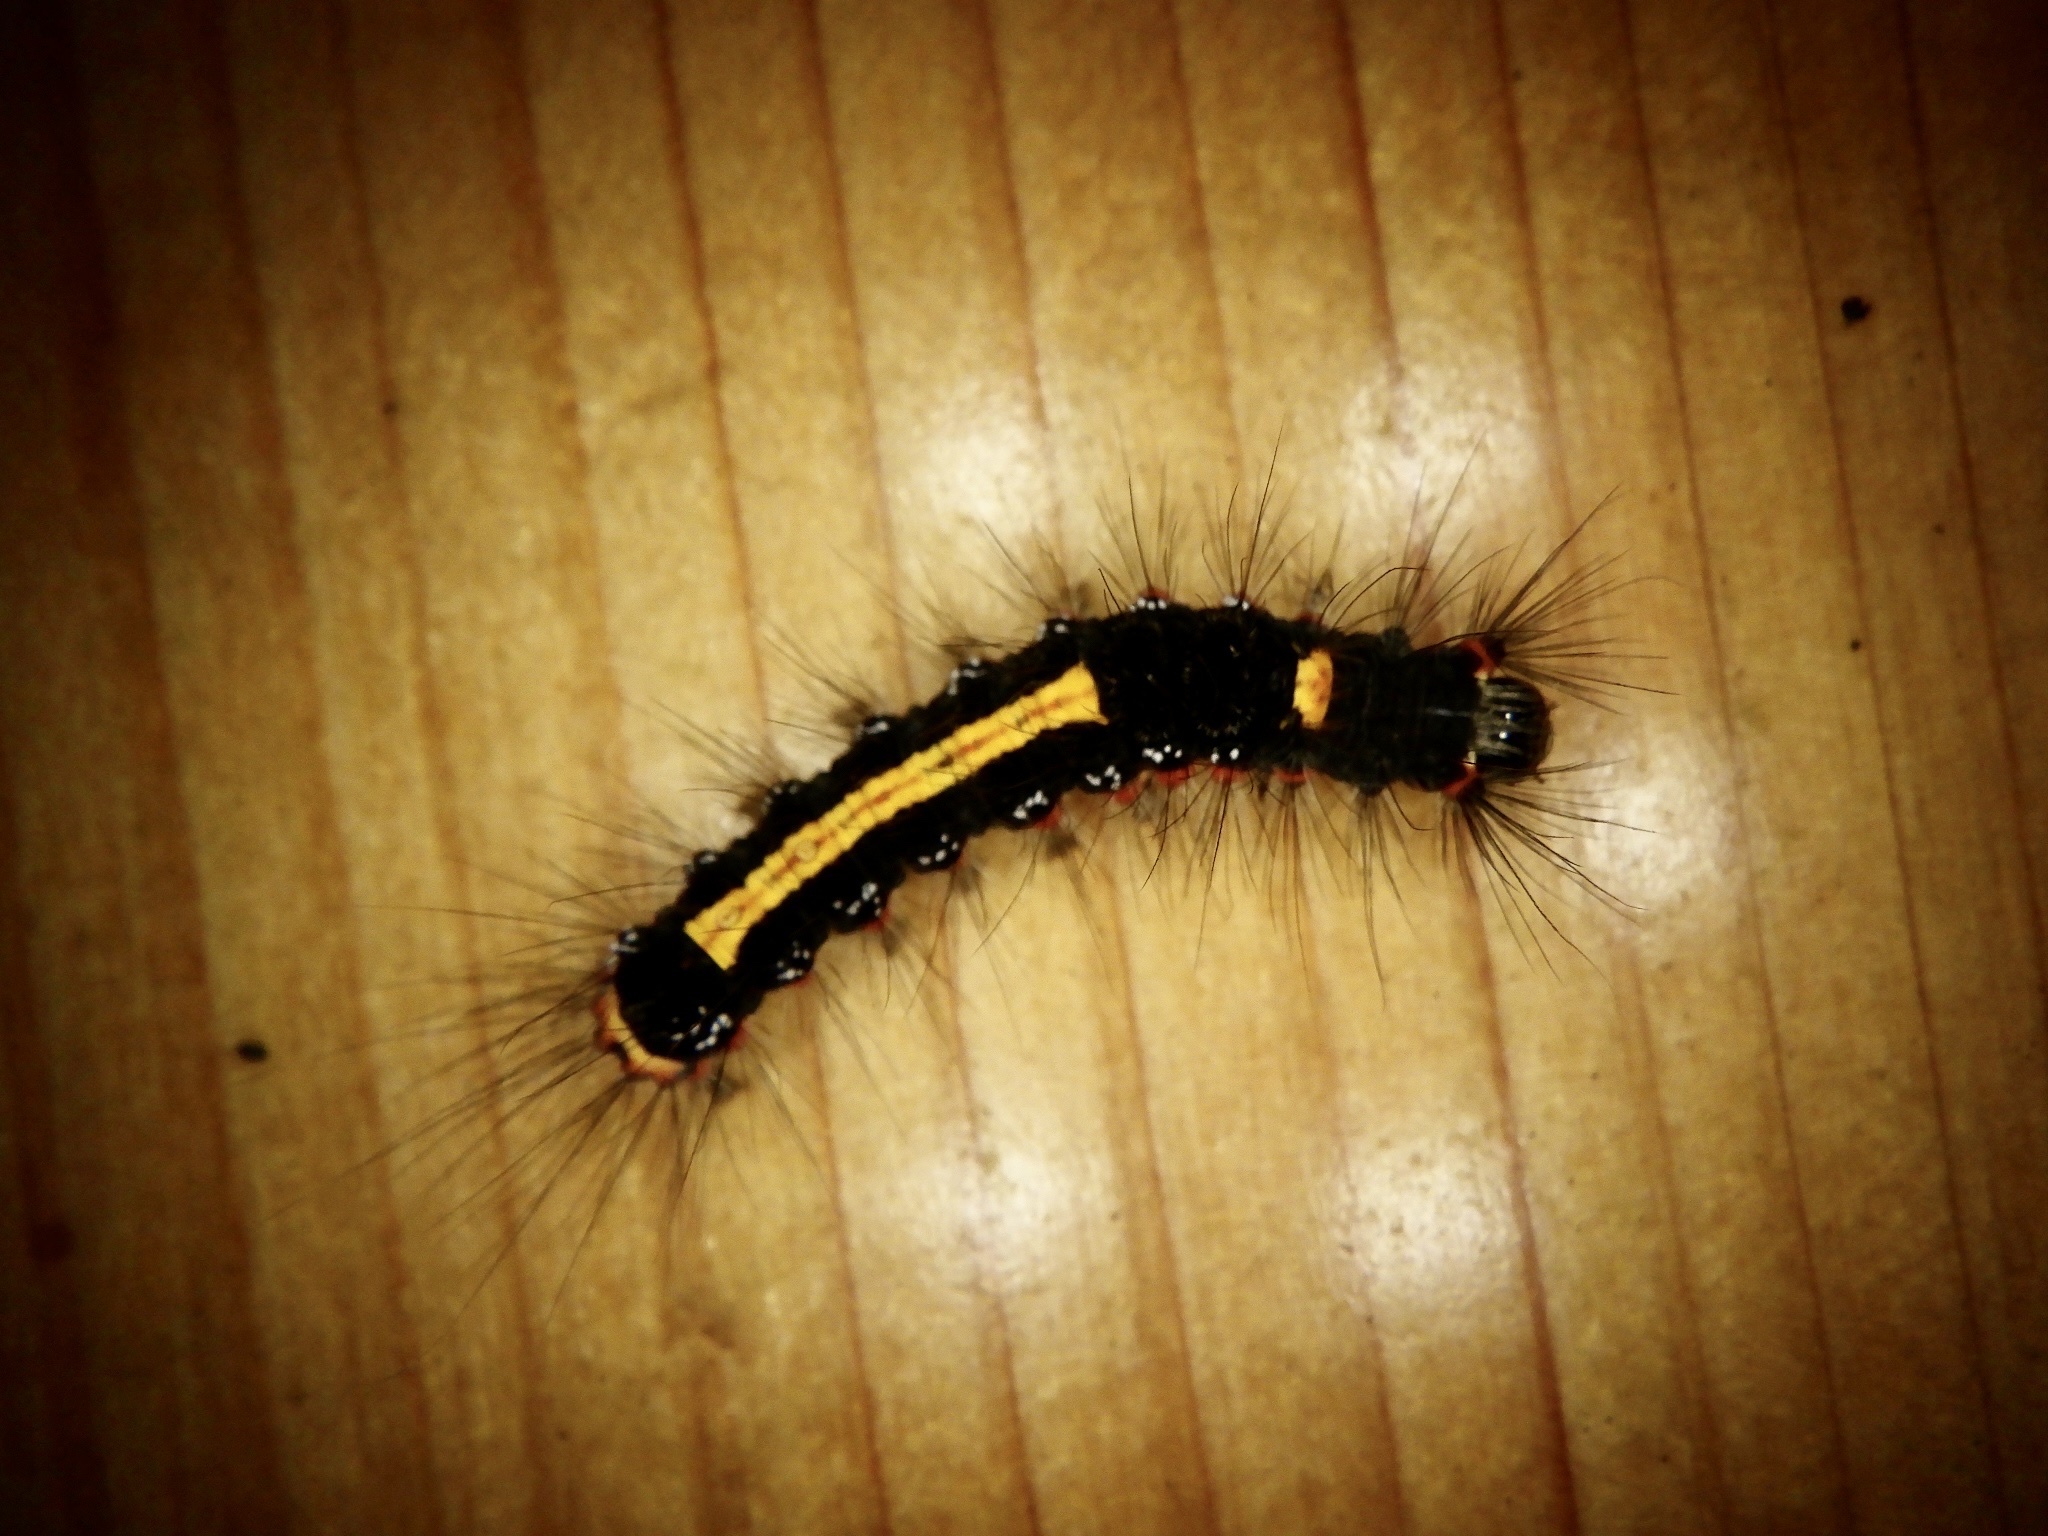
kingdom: Animalia
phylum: Arthropoda
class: Insecta
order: Lepidoptera
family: Erebidae
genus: Somena
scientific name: Somena
